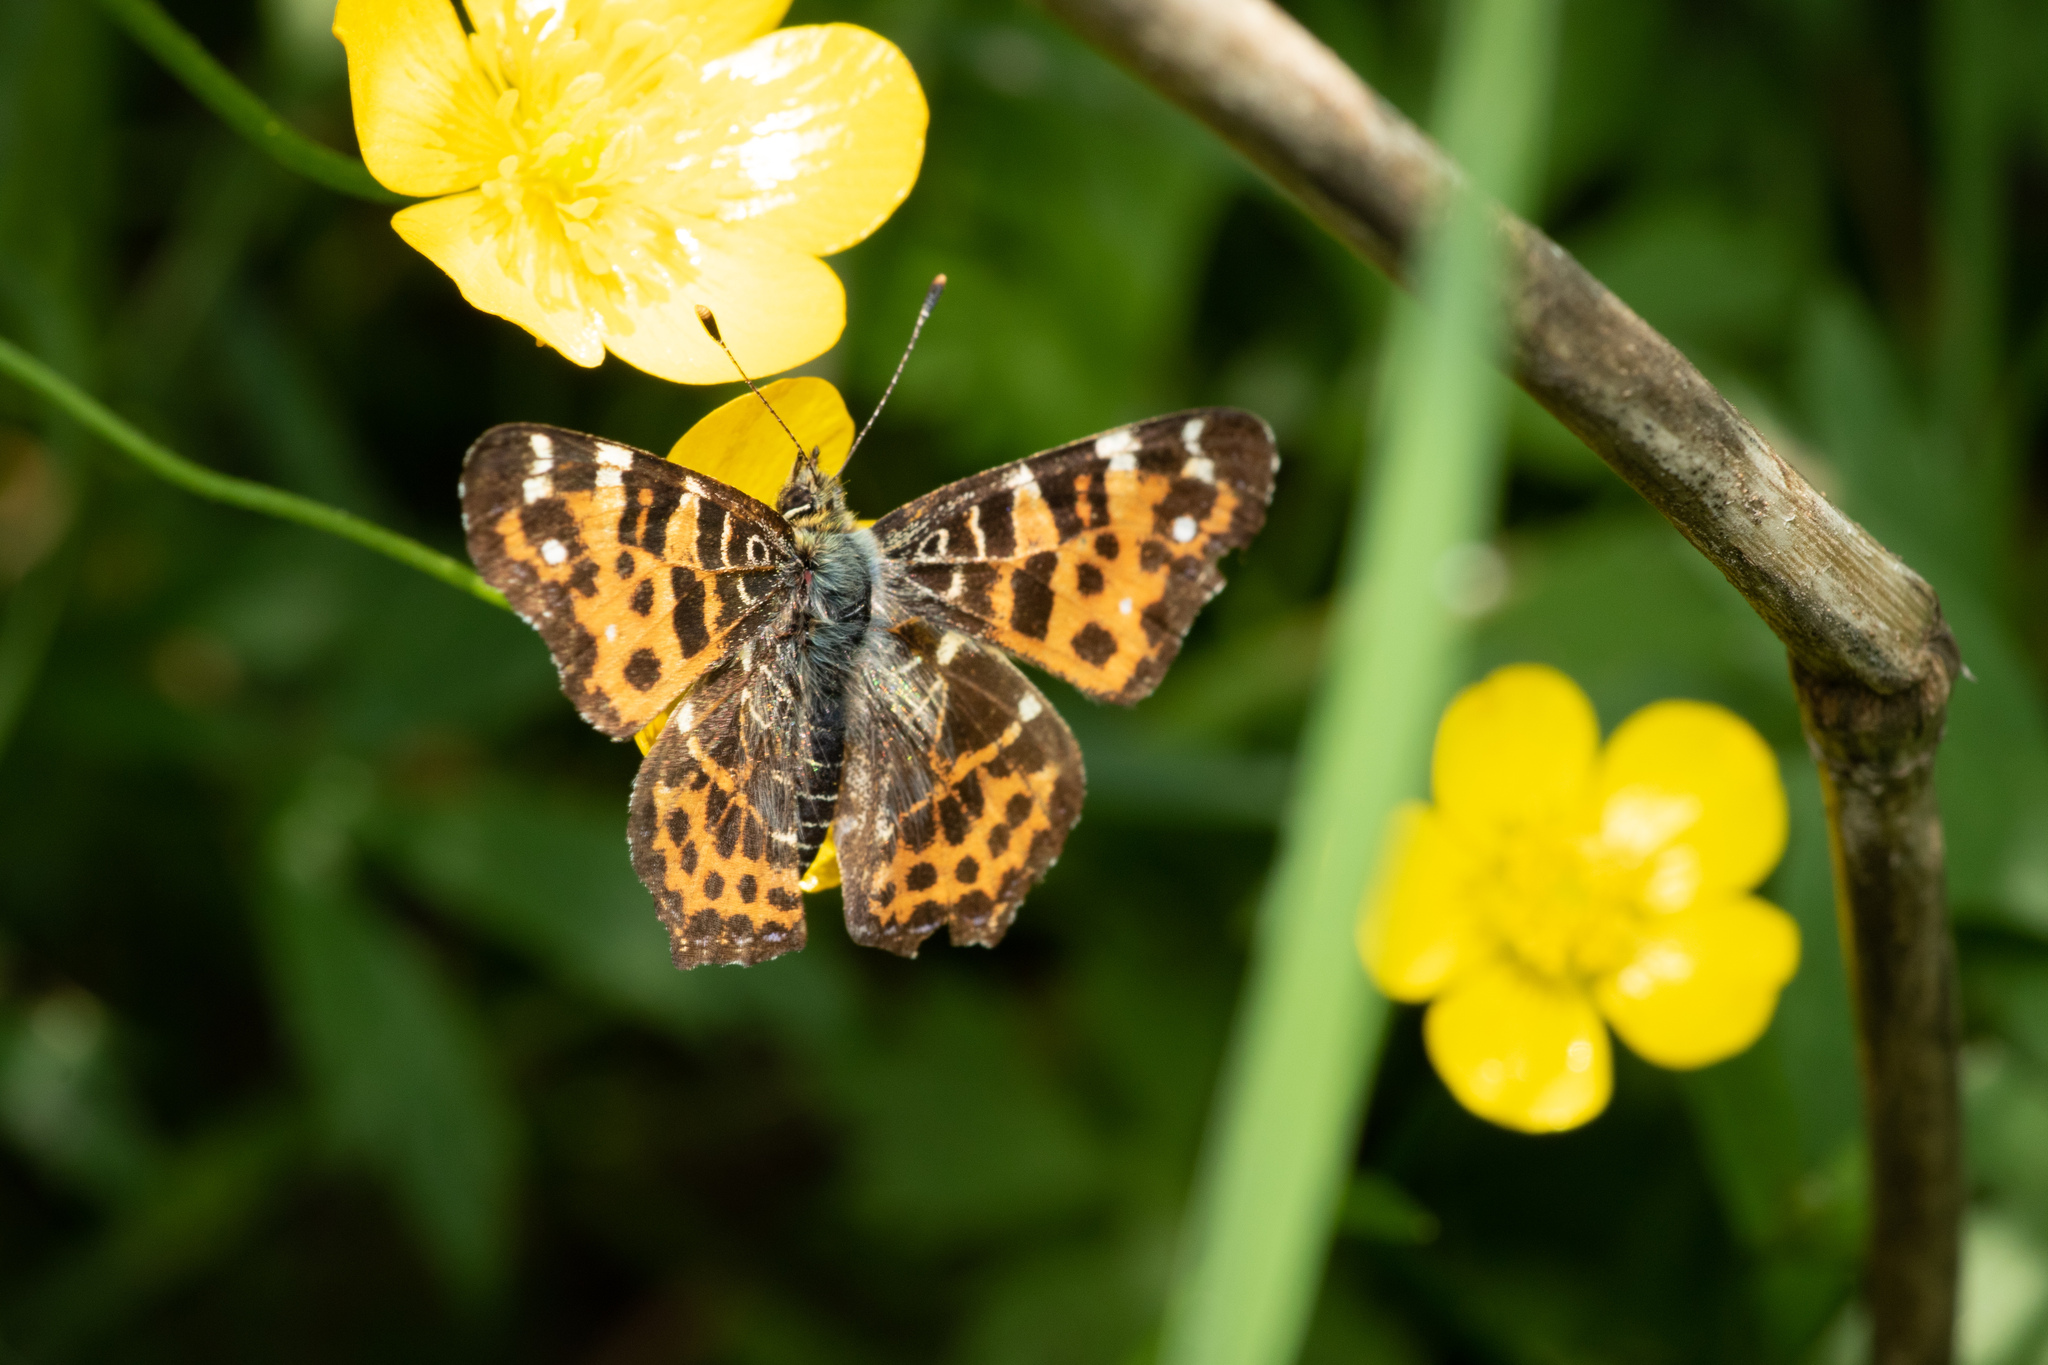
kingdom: Animalia
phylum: Arthropoda
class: Insecta
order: Lepidoptera
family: Nymphalidae
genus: Araschnia
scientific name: Araschnia levana
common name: Map butterfly
